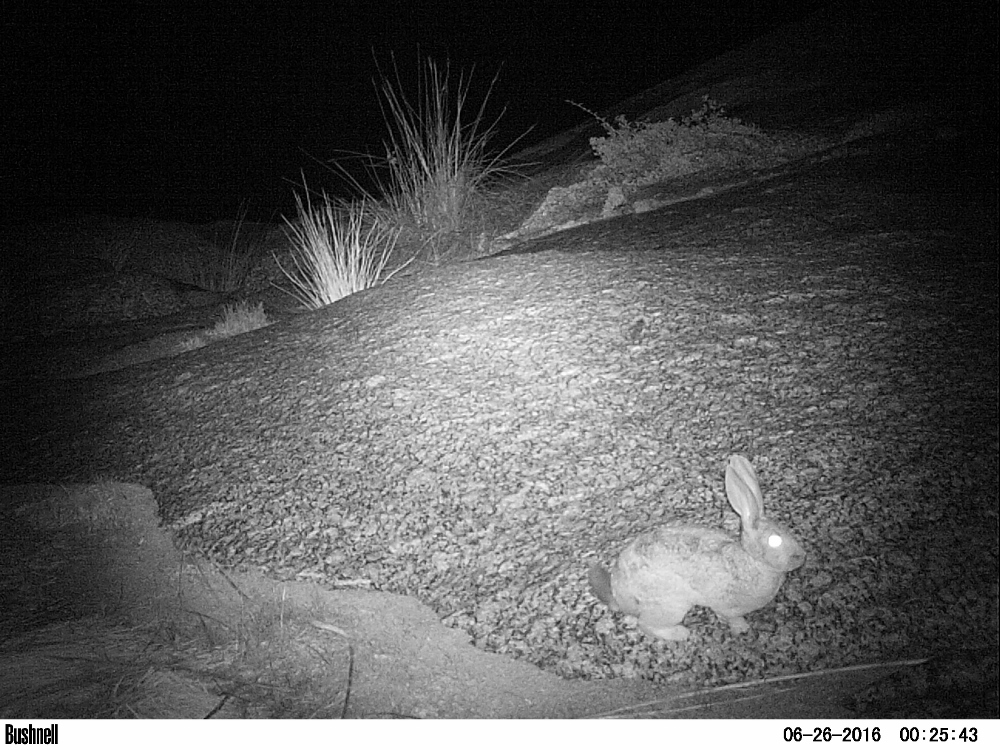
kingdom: Animalia
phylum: Chordata
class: Mammalia
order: Lagomorpha
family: Leporidae
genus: Pronolagus
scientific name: Pronolagus rupestris
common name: Smith's red rock hare
